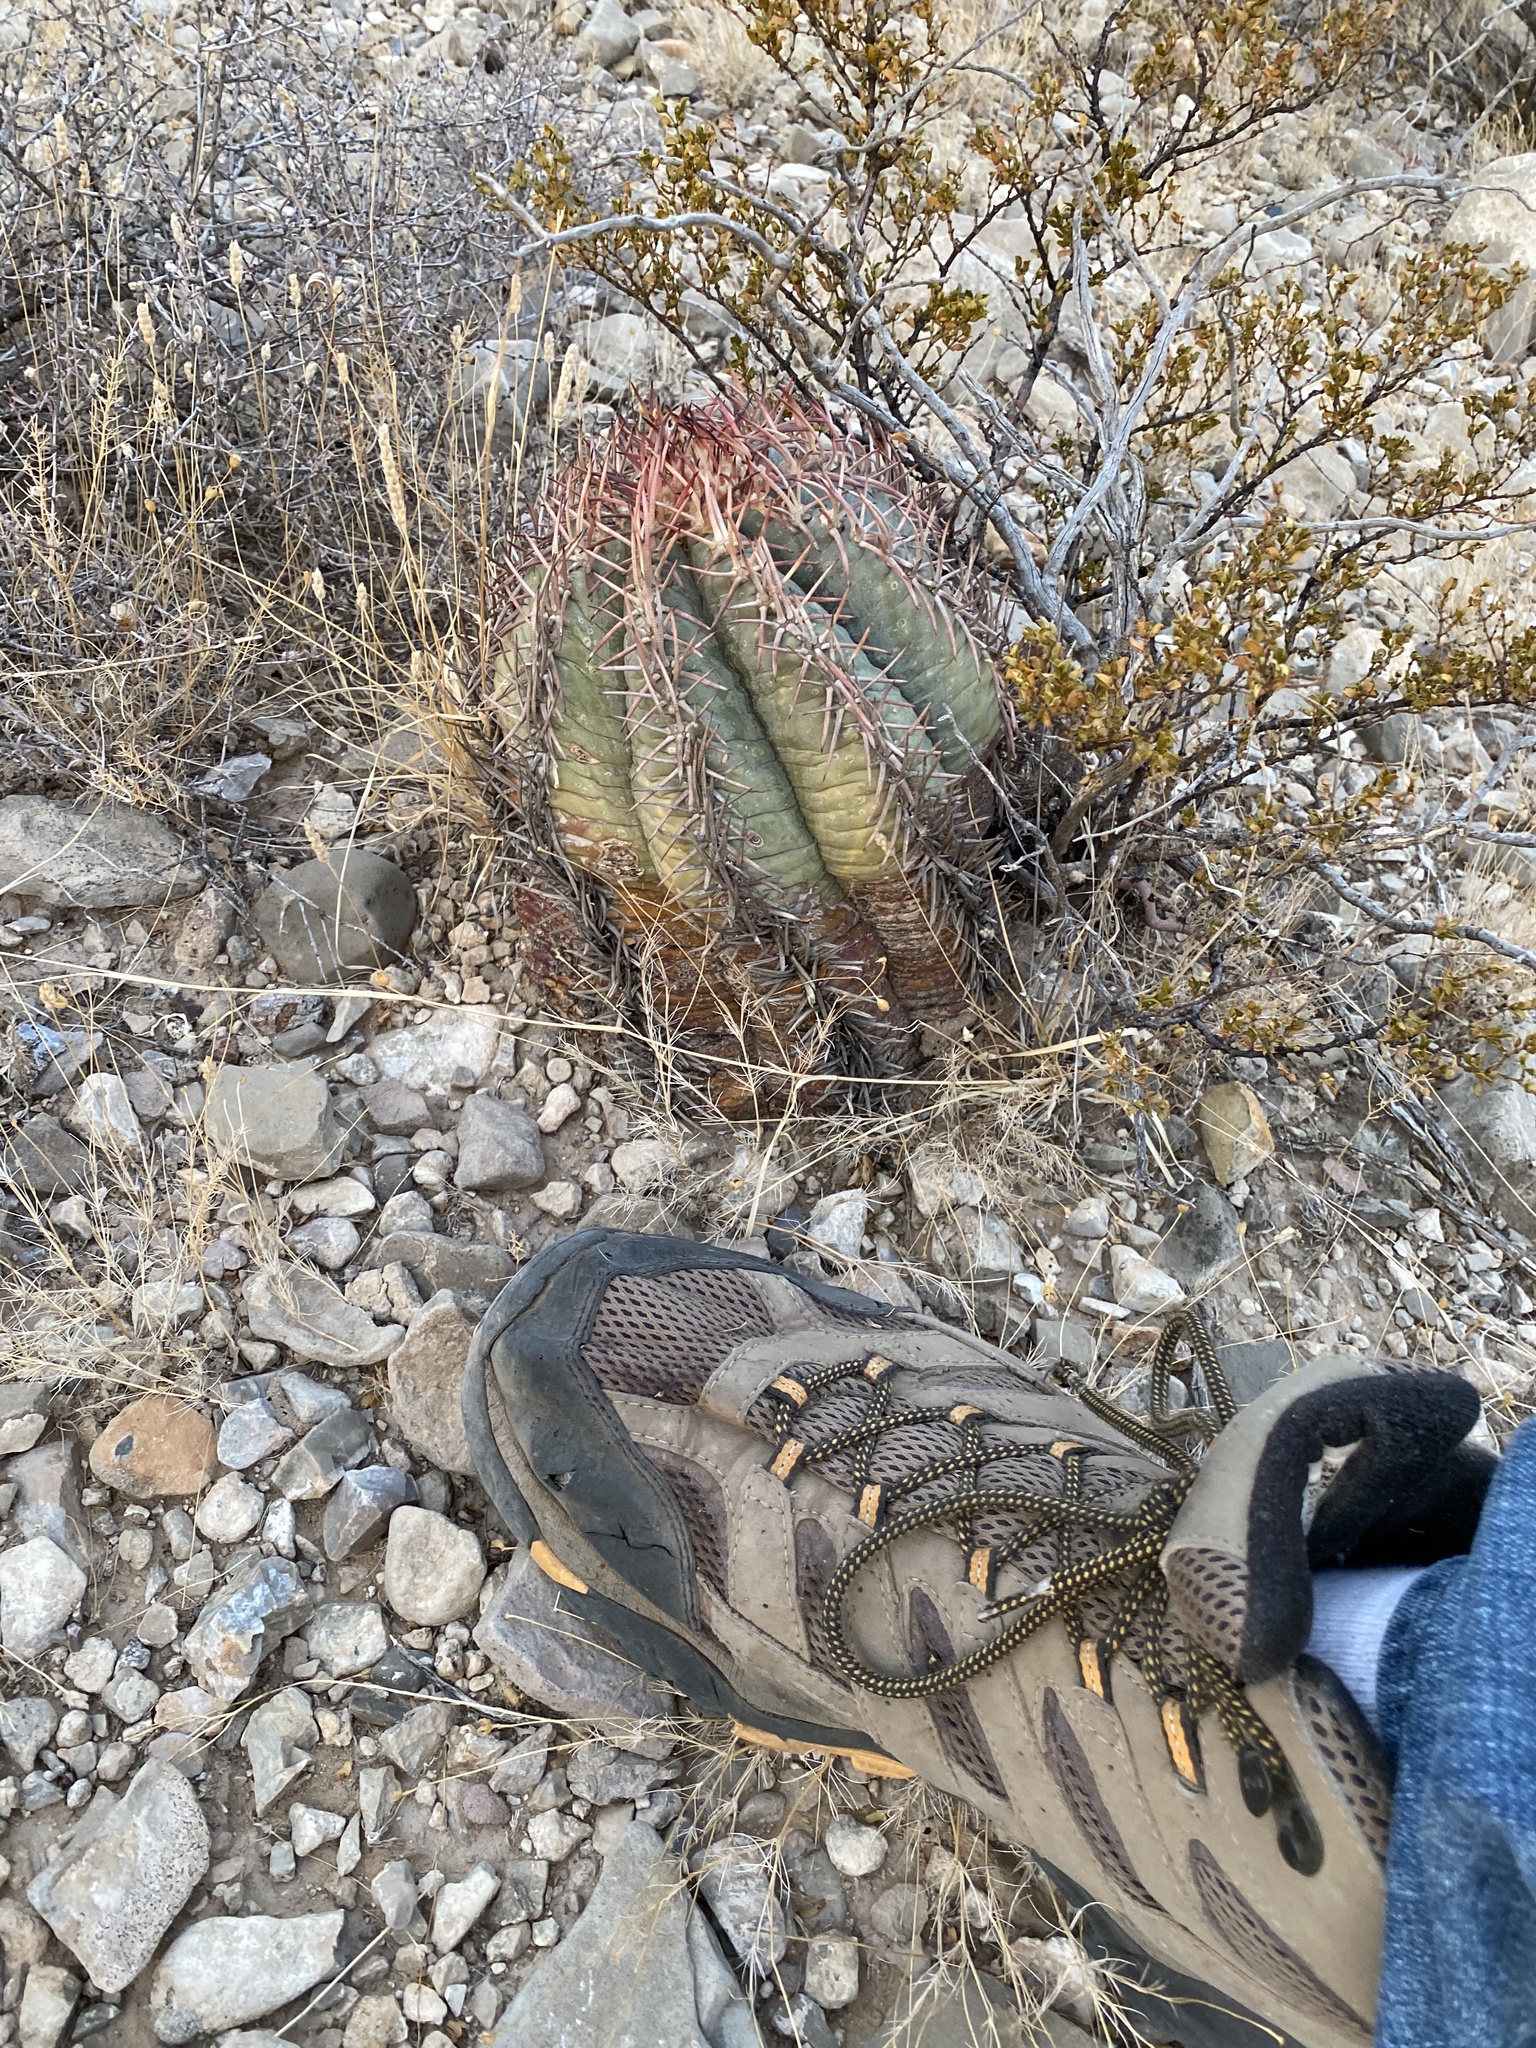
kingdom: Plantae
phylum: Tracheophyta
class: Magnoliopsida
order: Caryophyllales
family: Cactaceae
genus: Echinocactus
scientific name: Echinocactus horizonthalonius
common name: Devilshead
